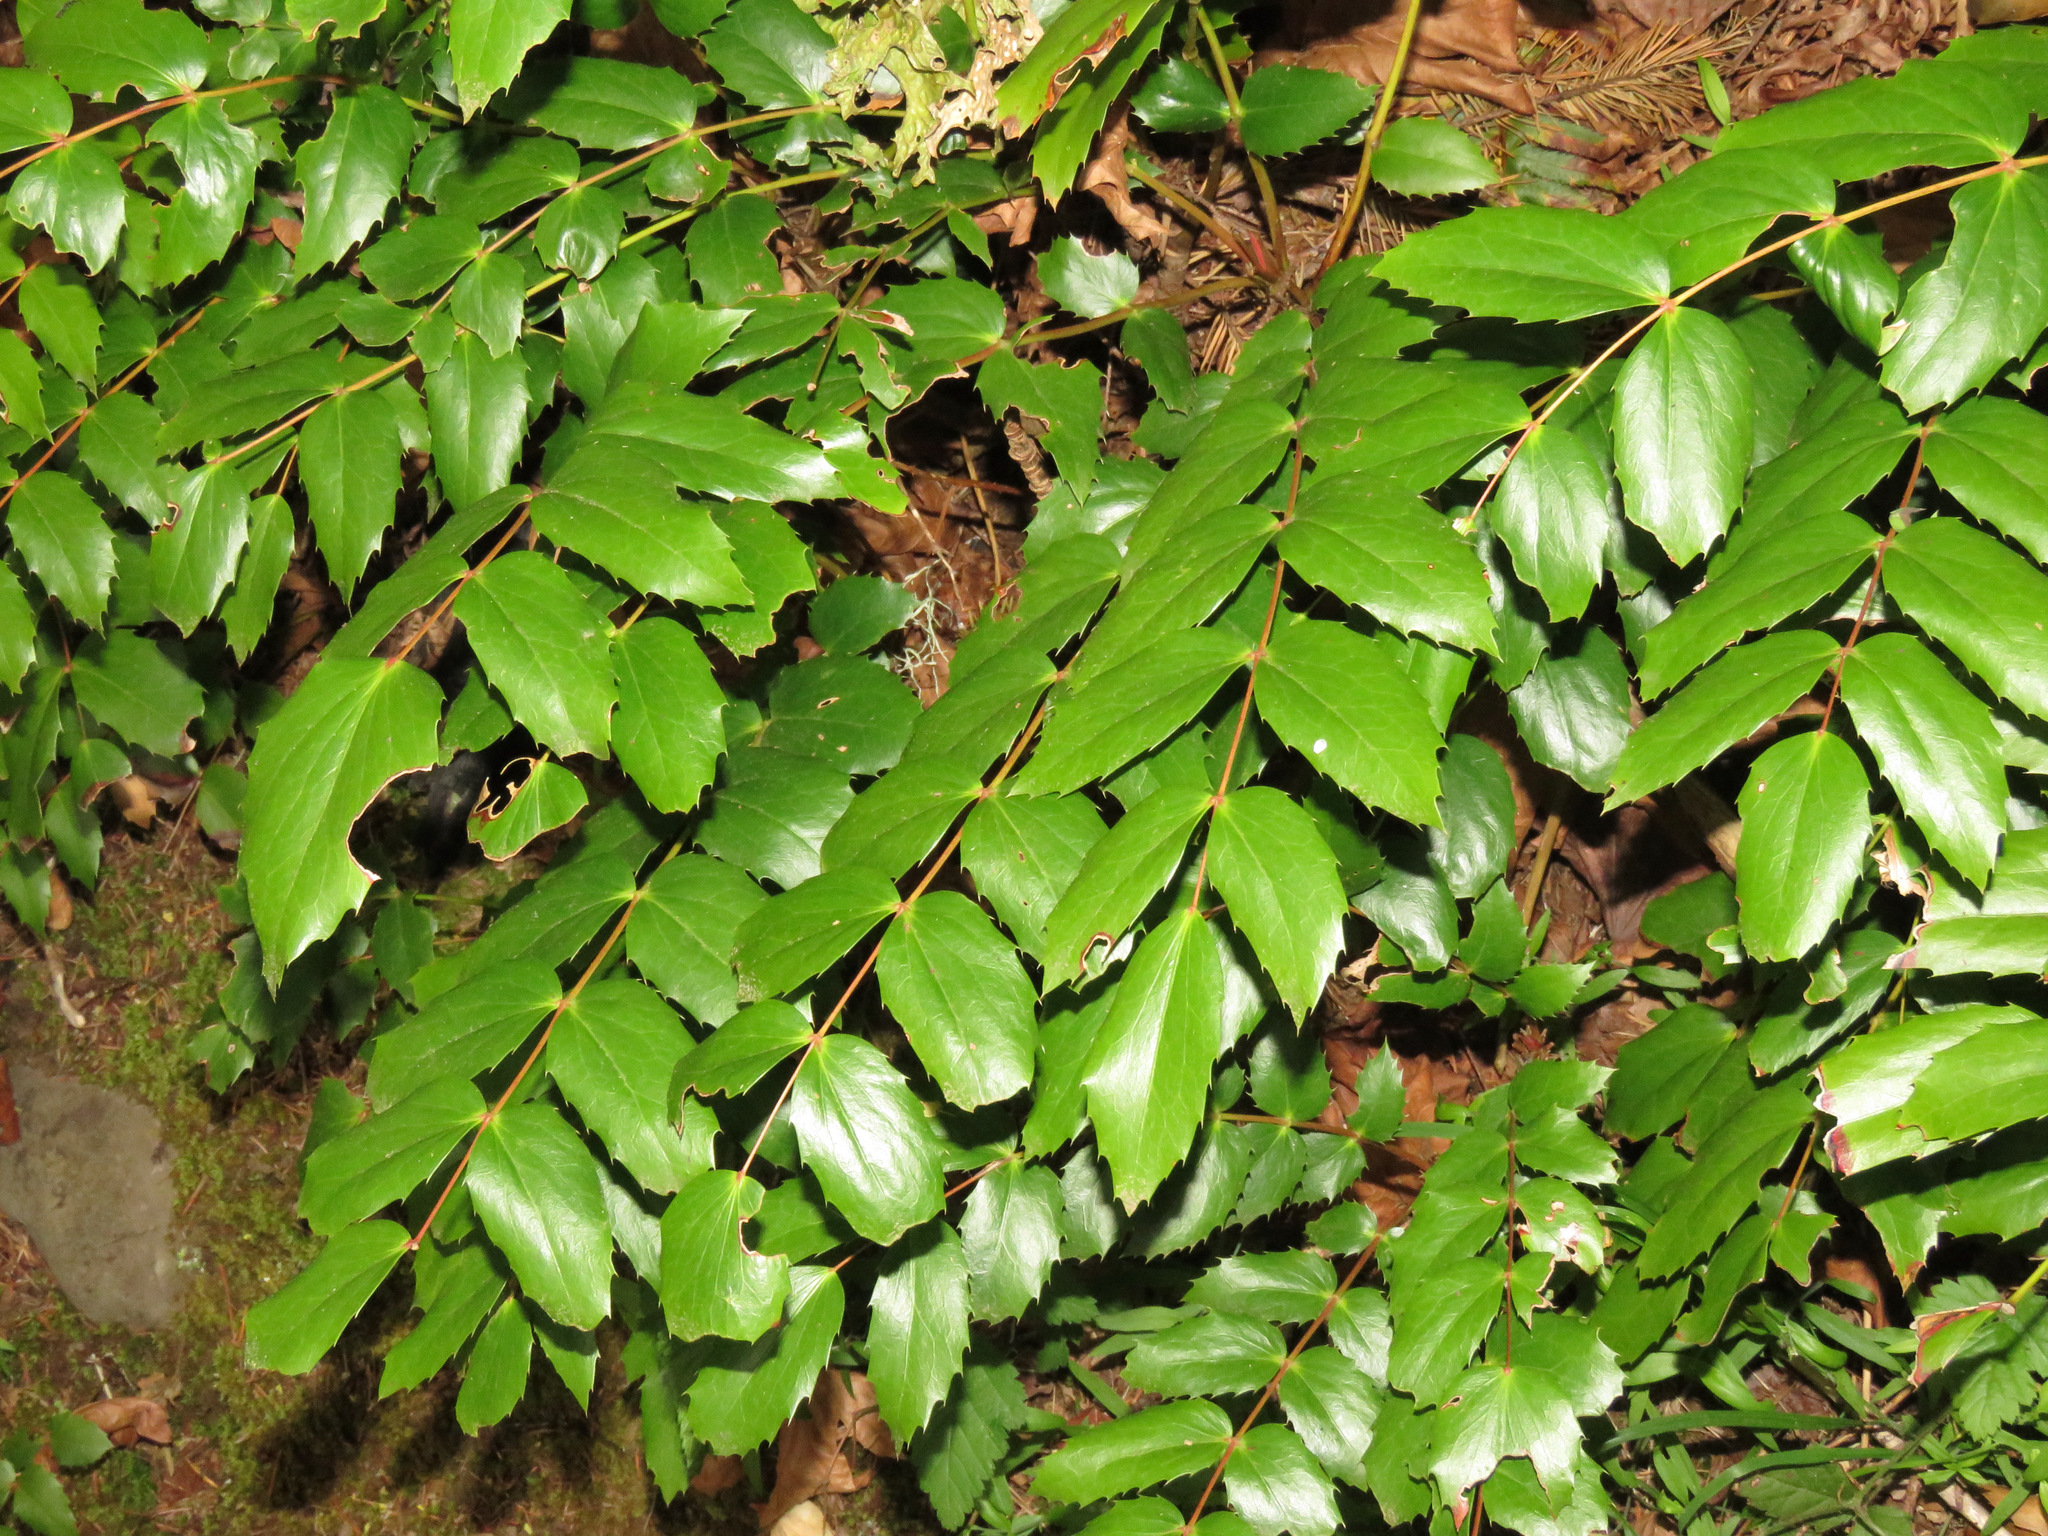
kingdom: Plantae
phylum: Tracheophyta
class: Magnoliopsida
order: Ranunculales
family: Berberidaceae
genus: Mahonia
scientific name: Mahonia nervosa
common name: Cascade oregon-grape
